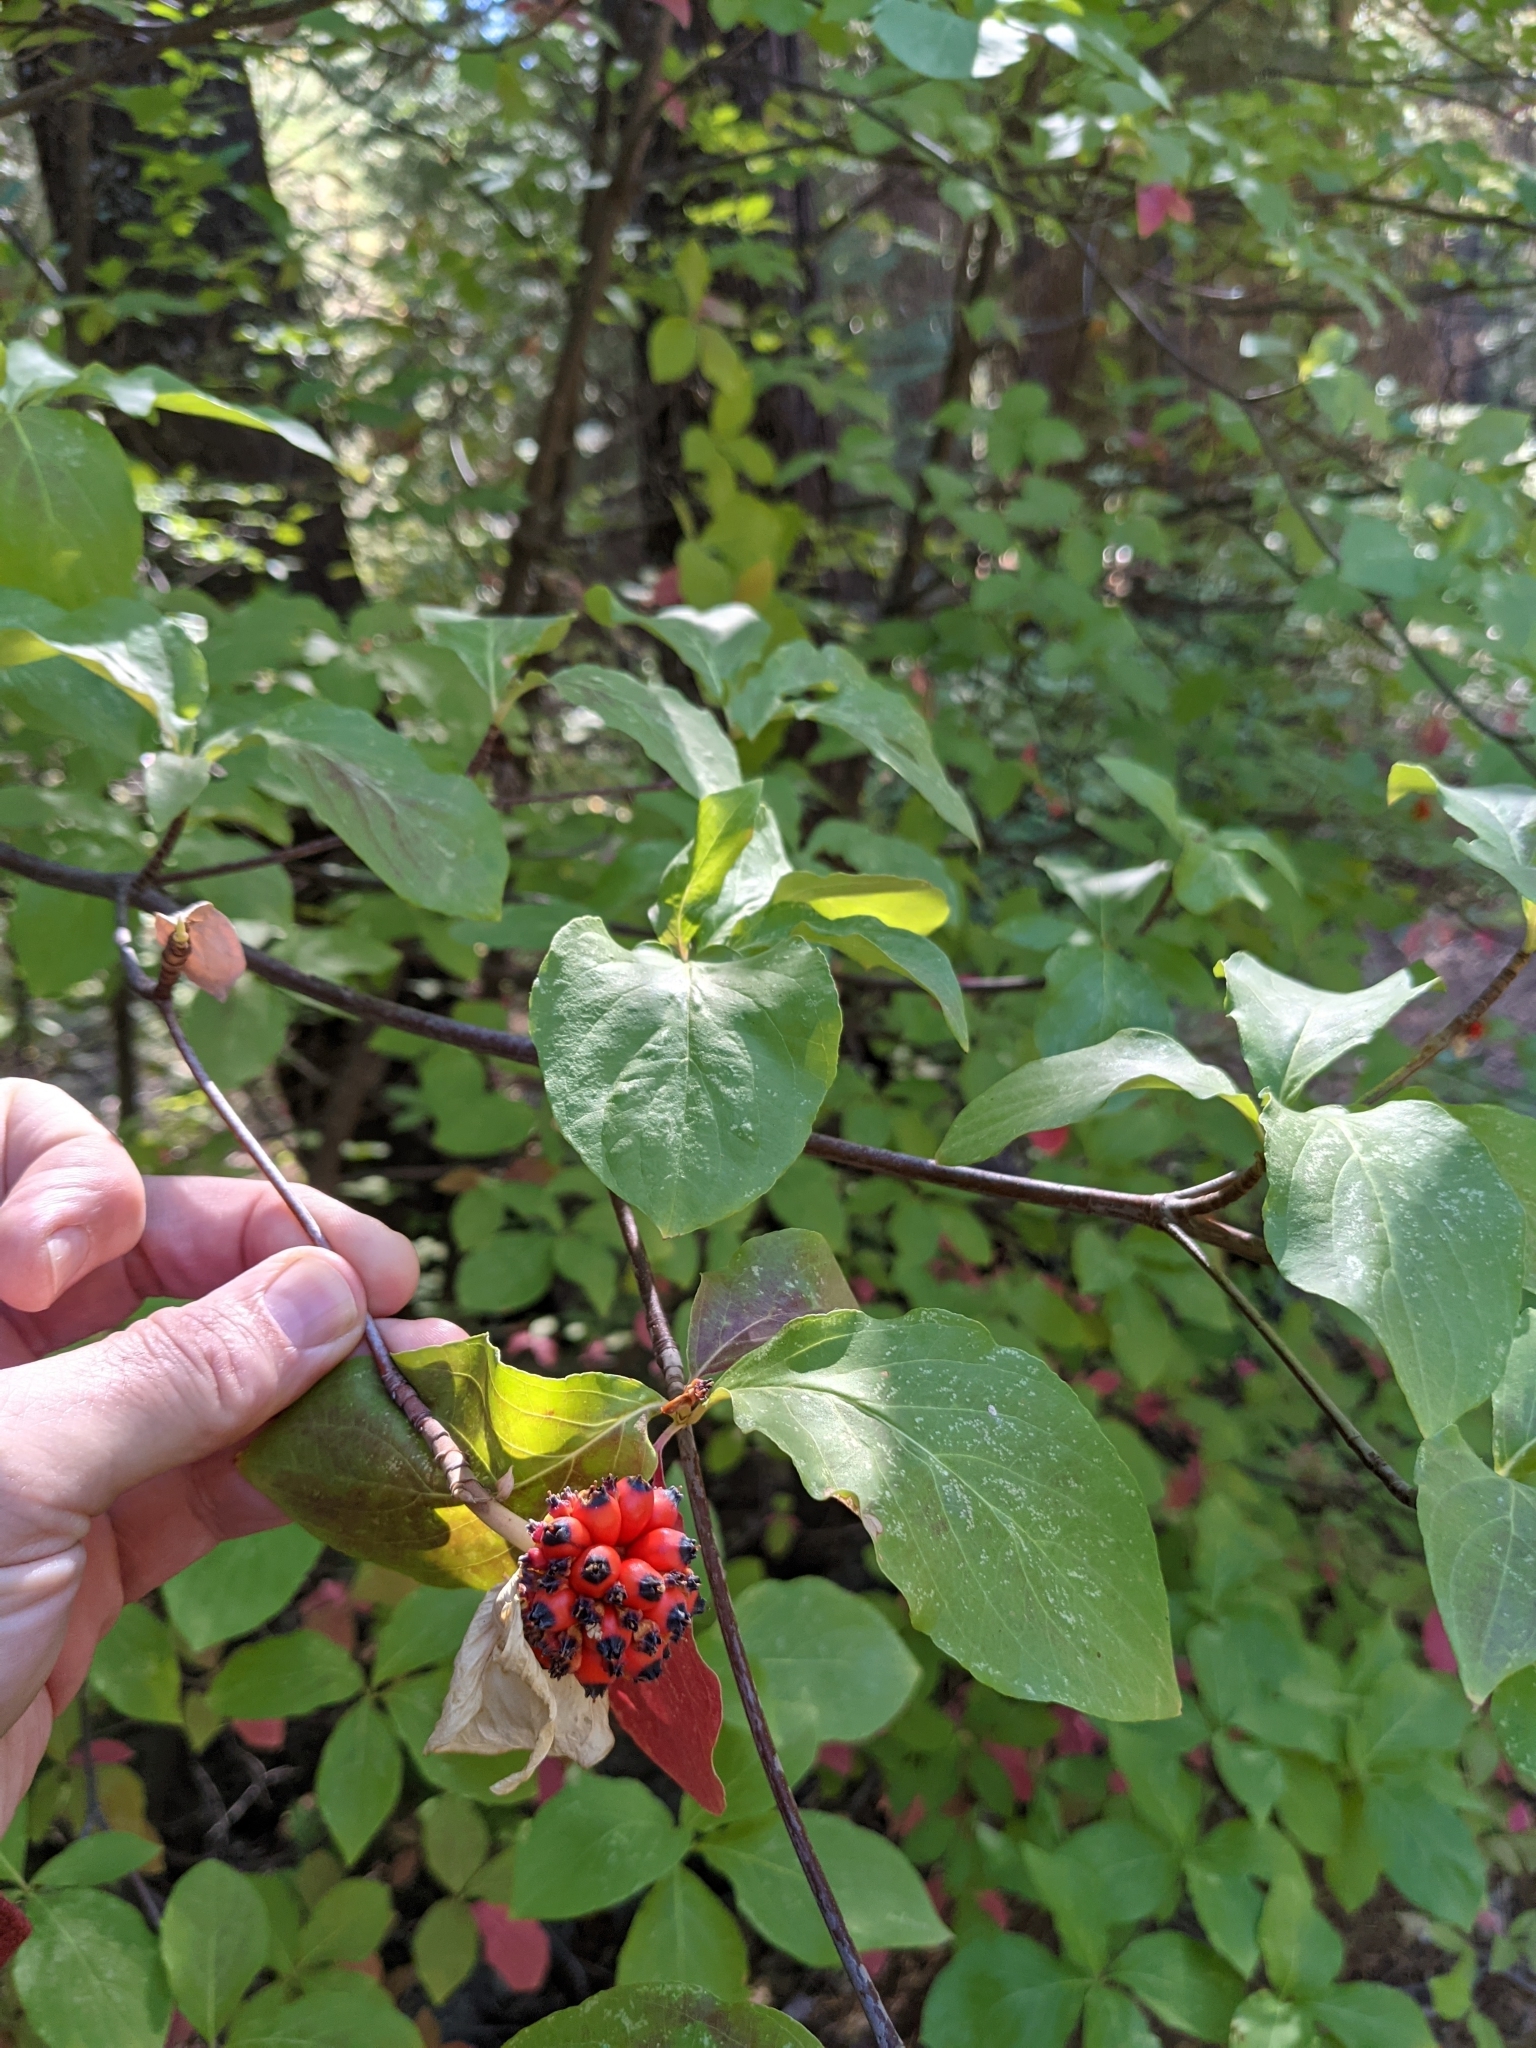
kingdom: Plantae
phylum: Tracheophyta
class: Magnoliopsida
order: Cornales
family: Cornaceae
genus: Cornus
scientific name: Cornus nuttallii
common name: Pacific dogwood
